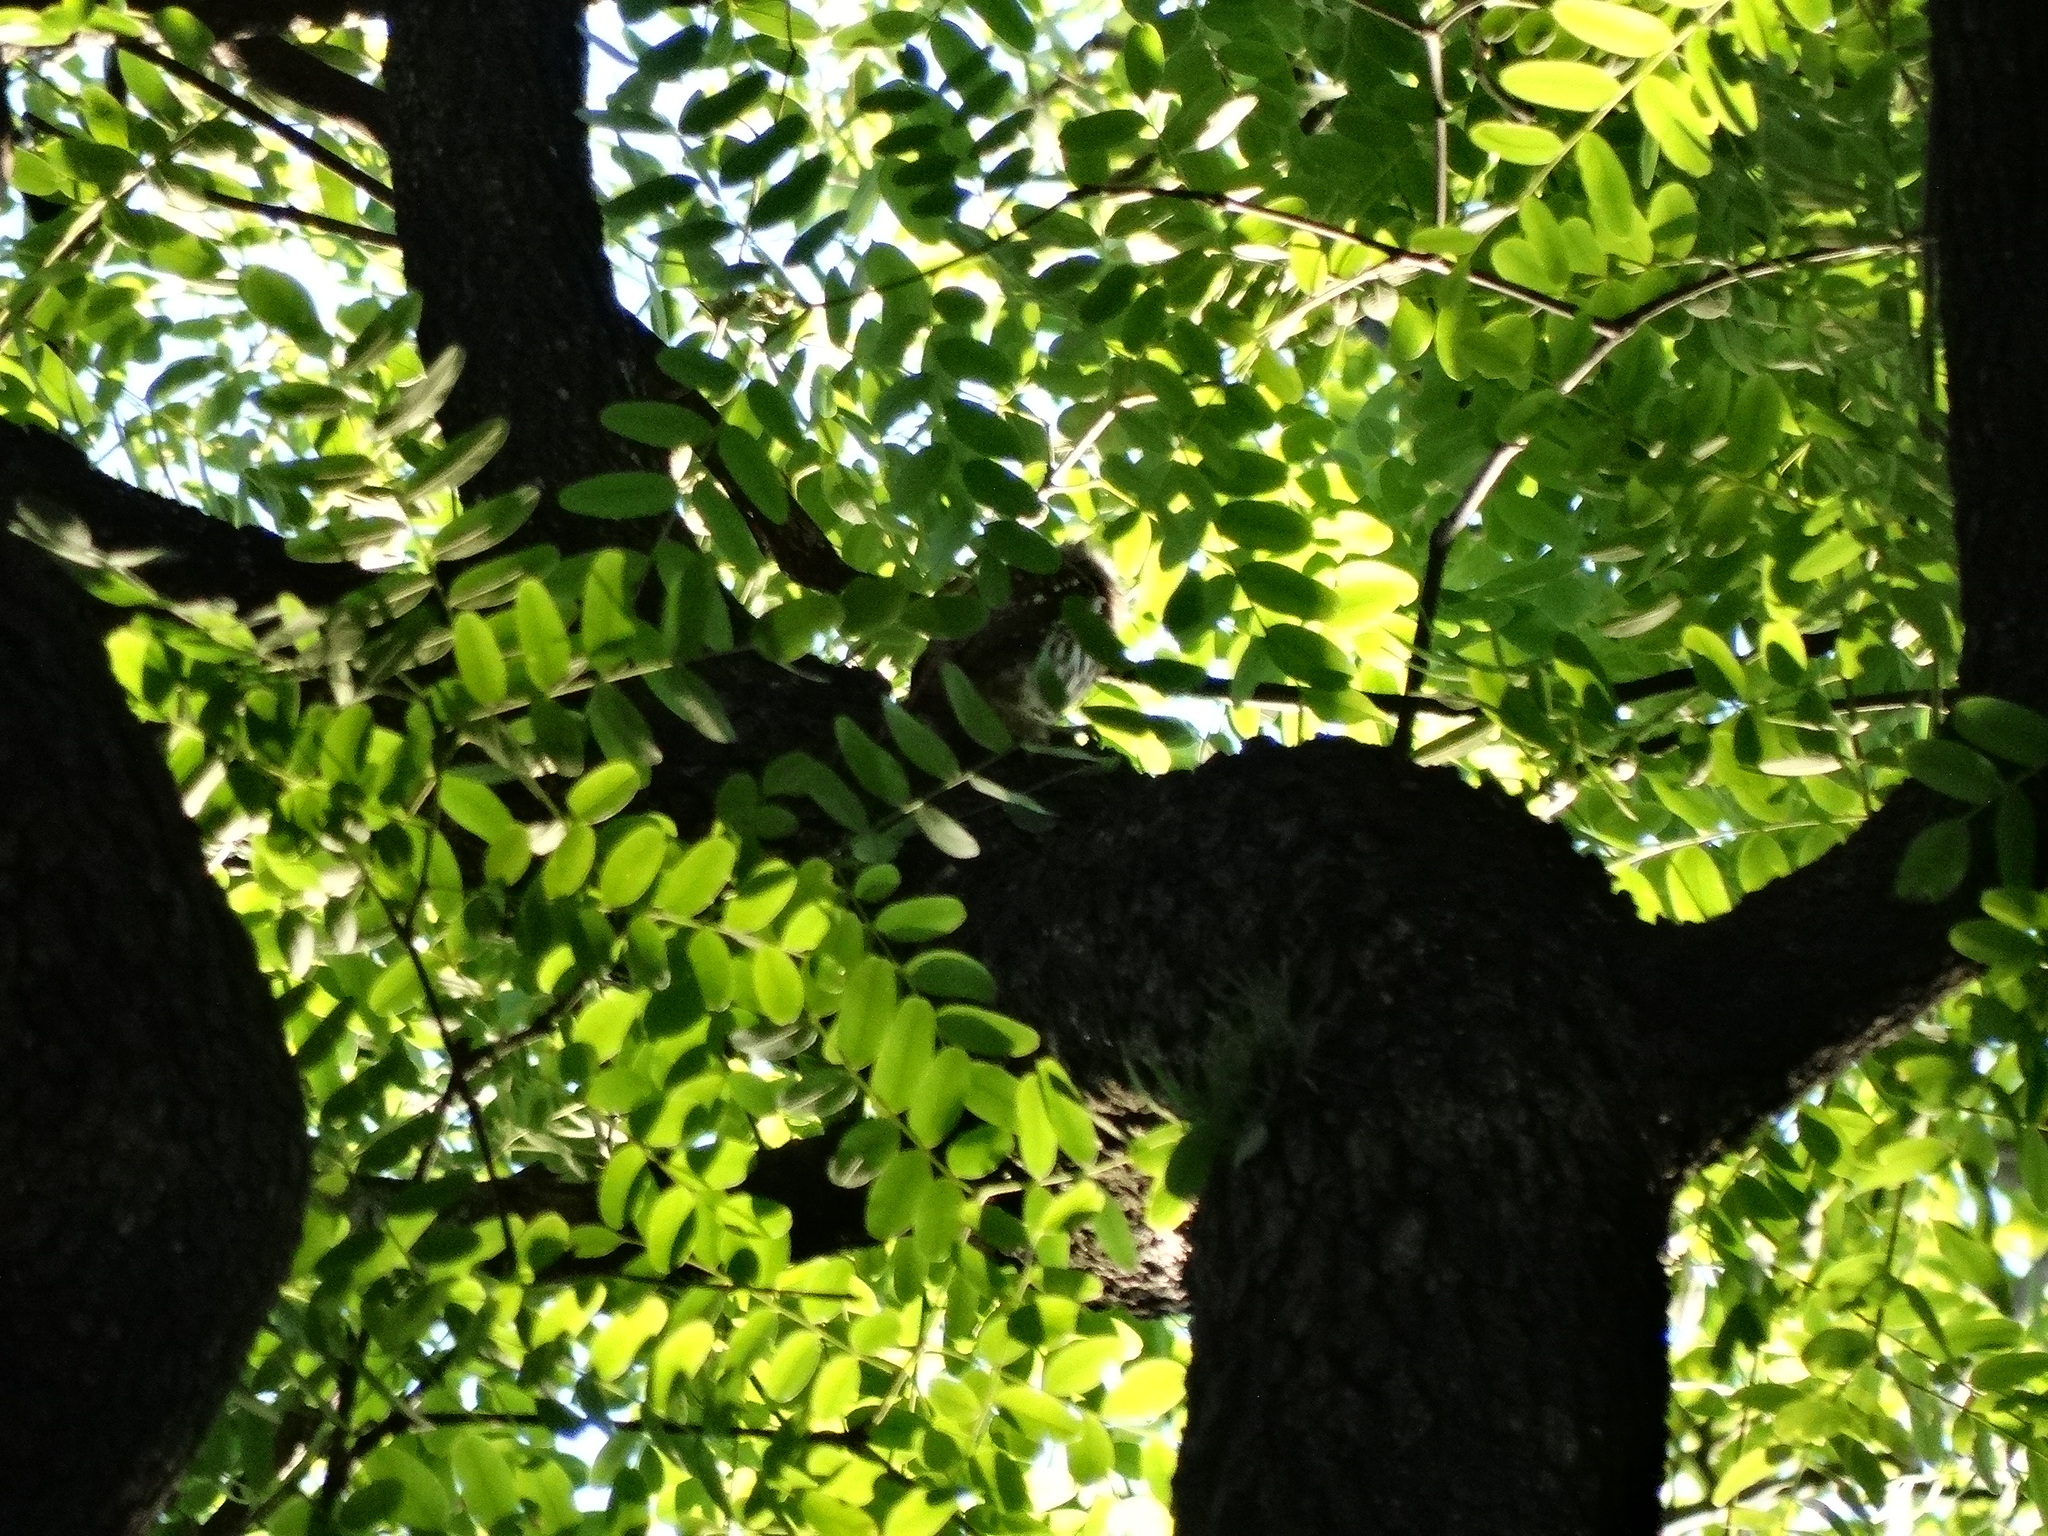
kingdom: Animalia
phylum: Chordata
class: Aves
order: Strigiformes
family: Strigidae
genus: Glaucidium
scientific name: Glaucidium brasilianum
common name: Ferruginous pygmy-owl
